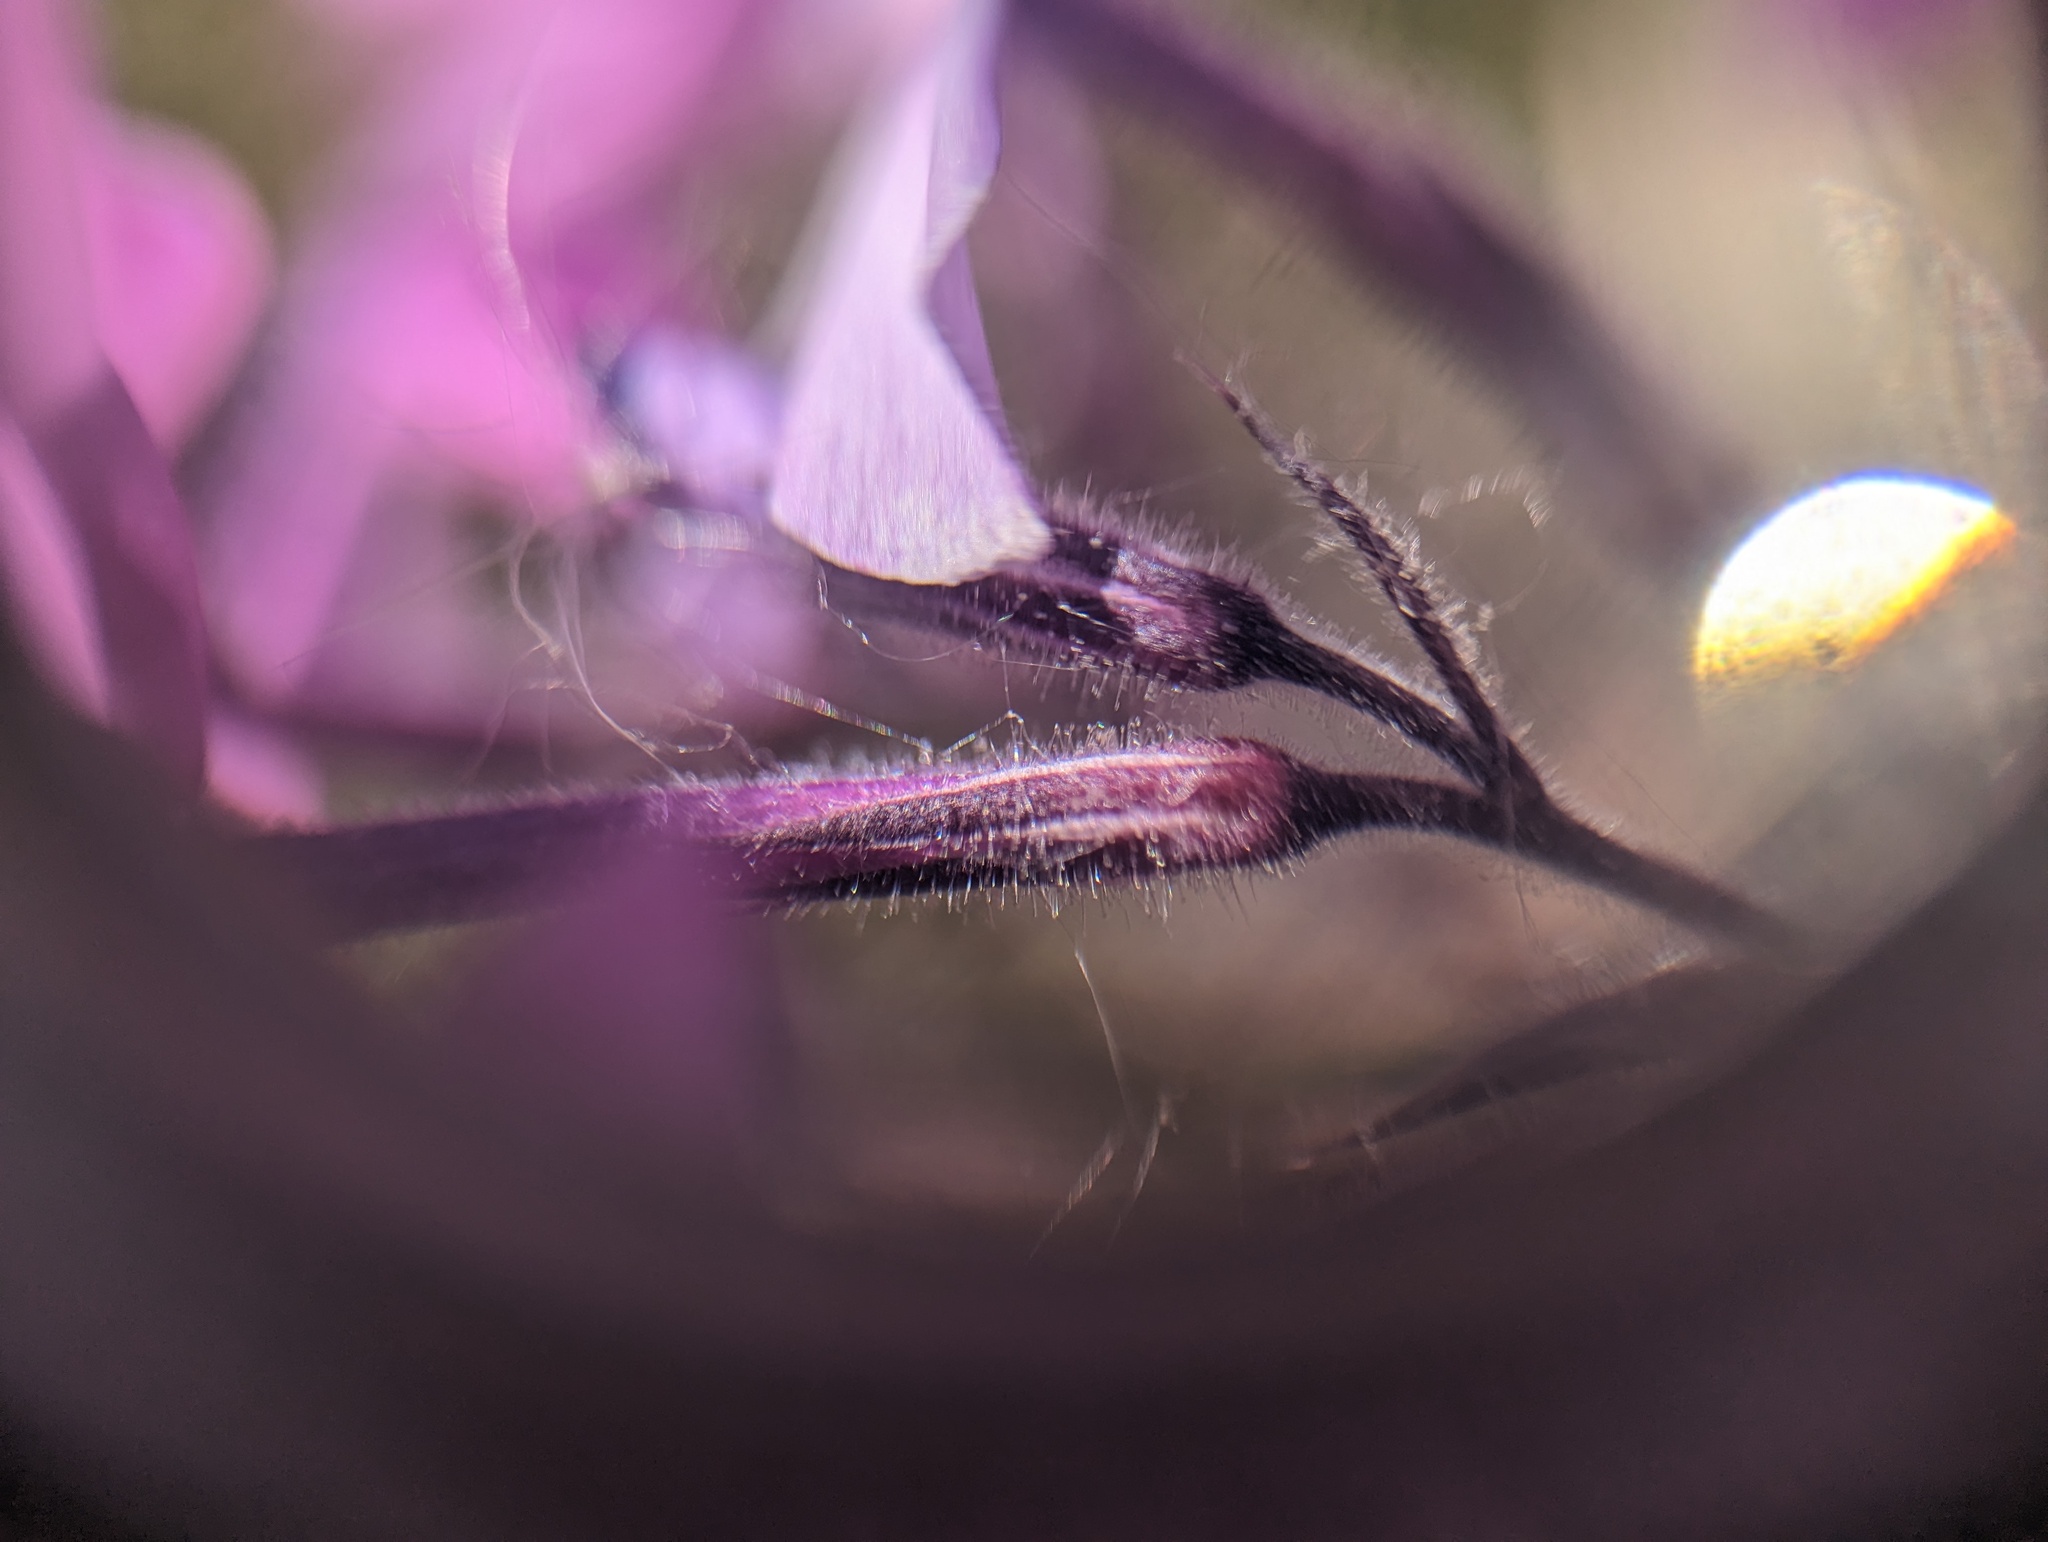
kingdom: Plantae
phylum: Tracheophyta
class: Magnoliopsida
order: Ericales
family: Polemoniaceae
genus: Phlox
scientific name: Phlox pilosa
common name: Prairie phlox
